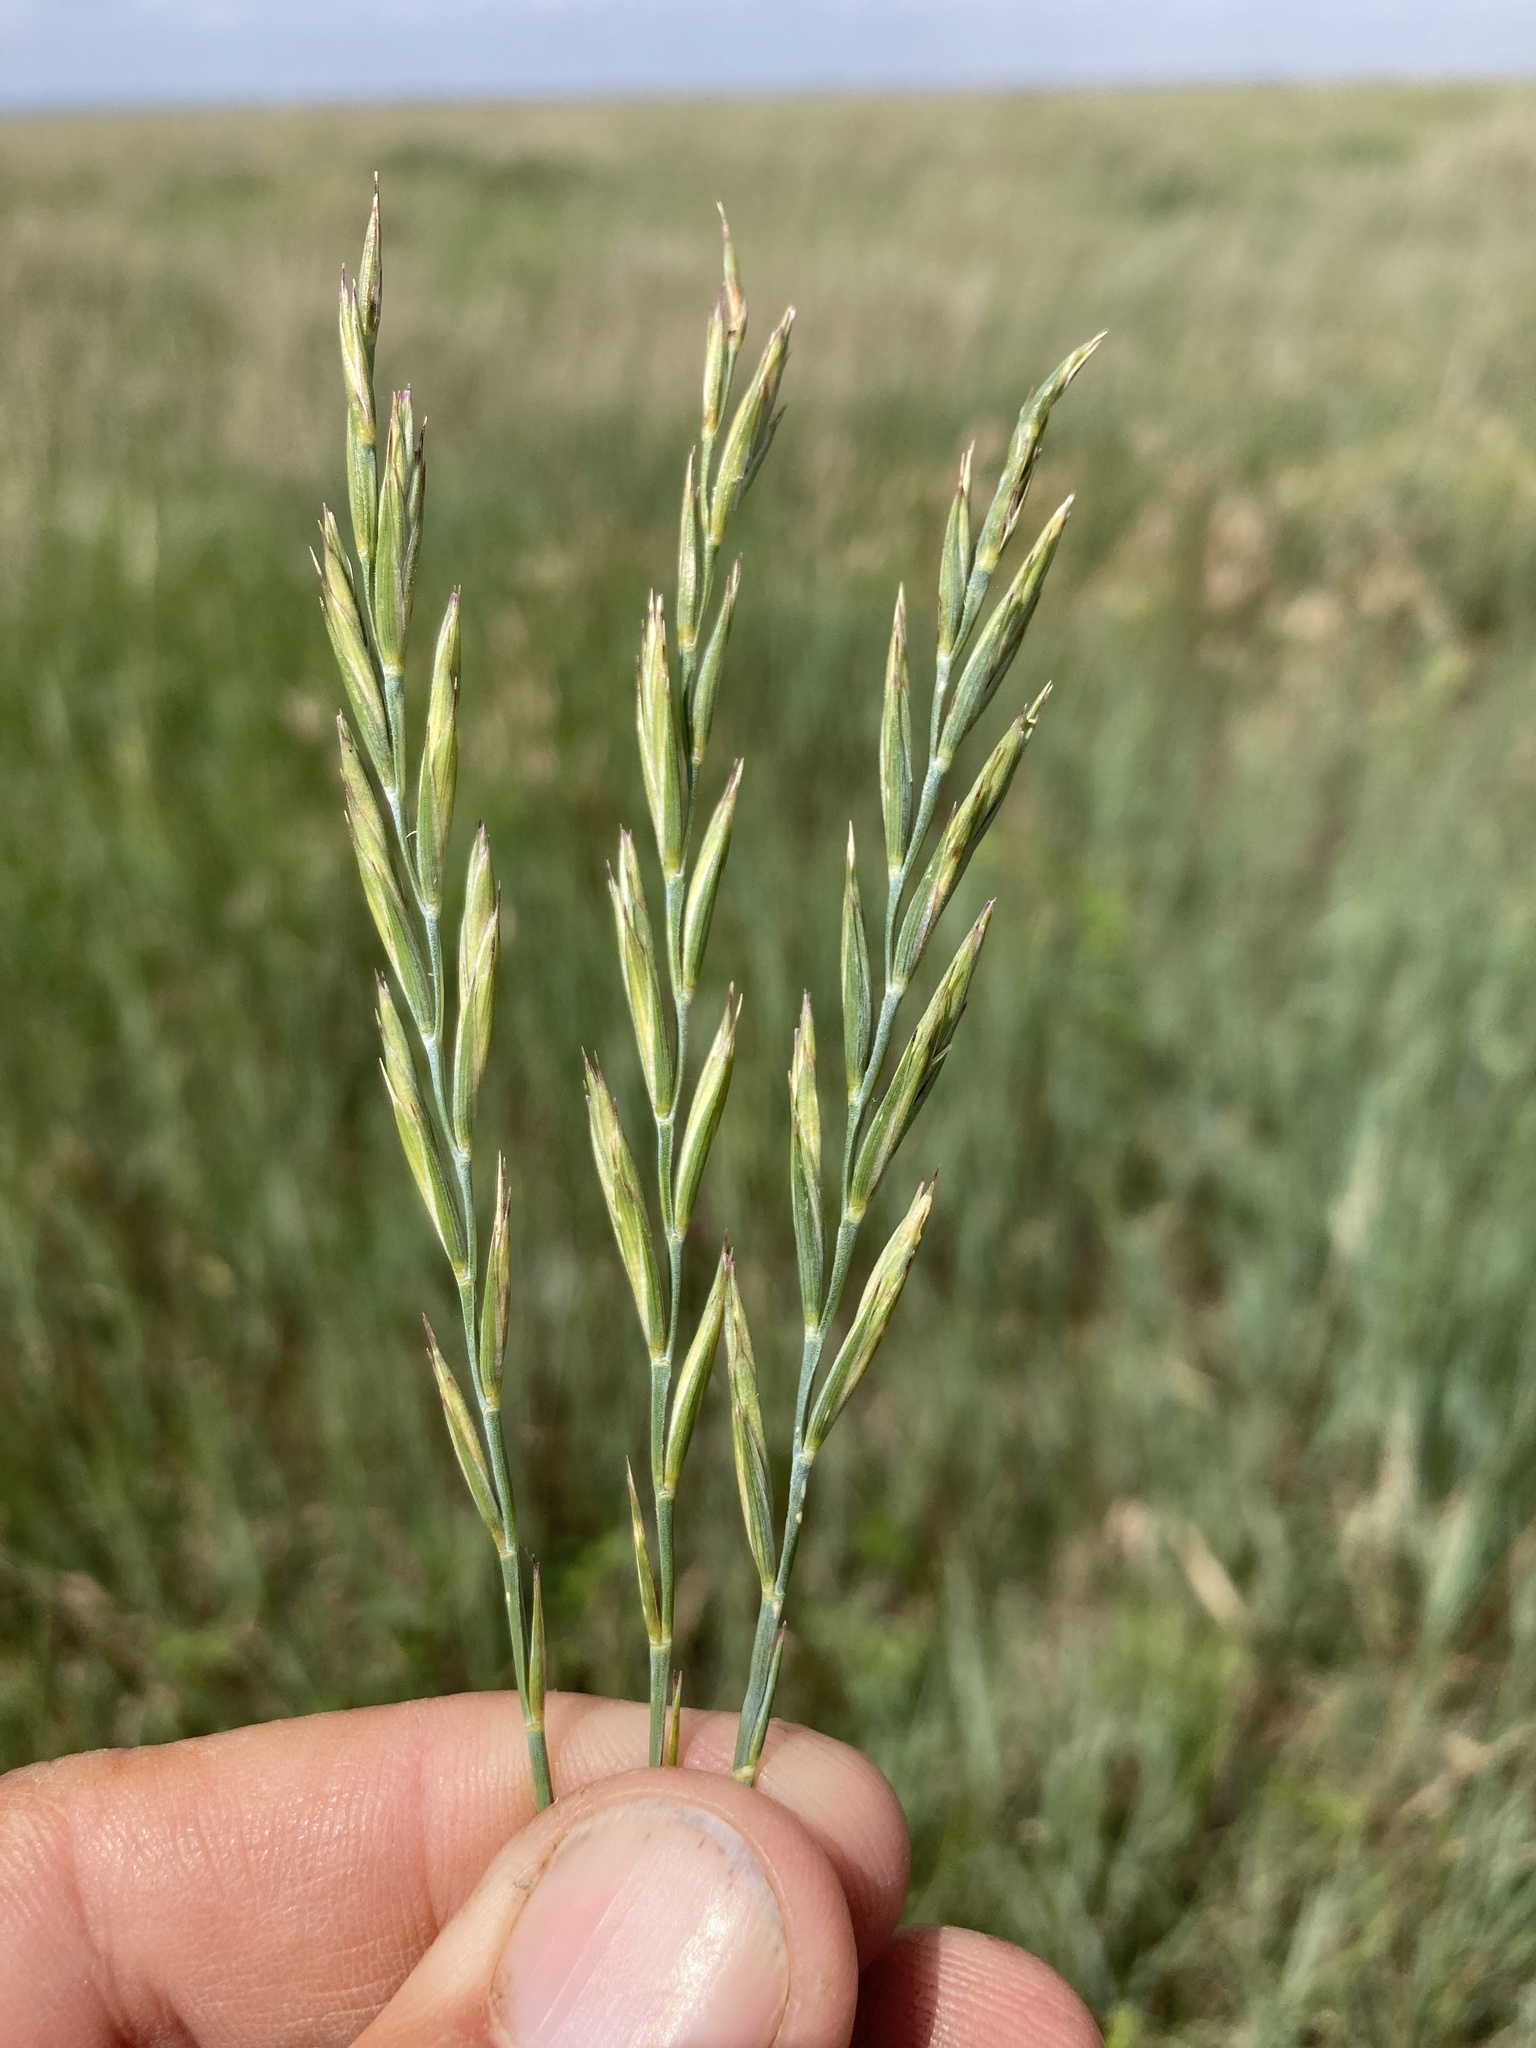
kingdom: Plantae
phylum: Tracheophyta
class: Liliopsida
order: Poales
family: Poaceae
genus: Elymus
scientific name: Elymus smithii
